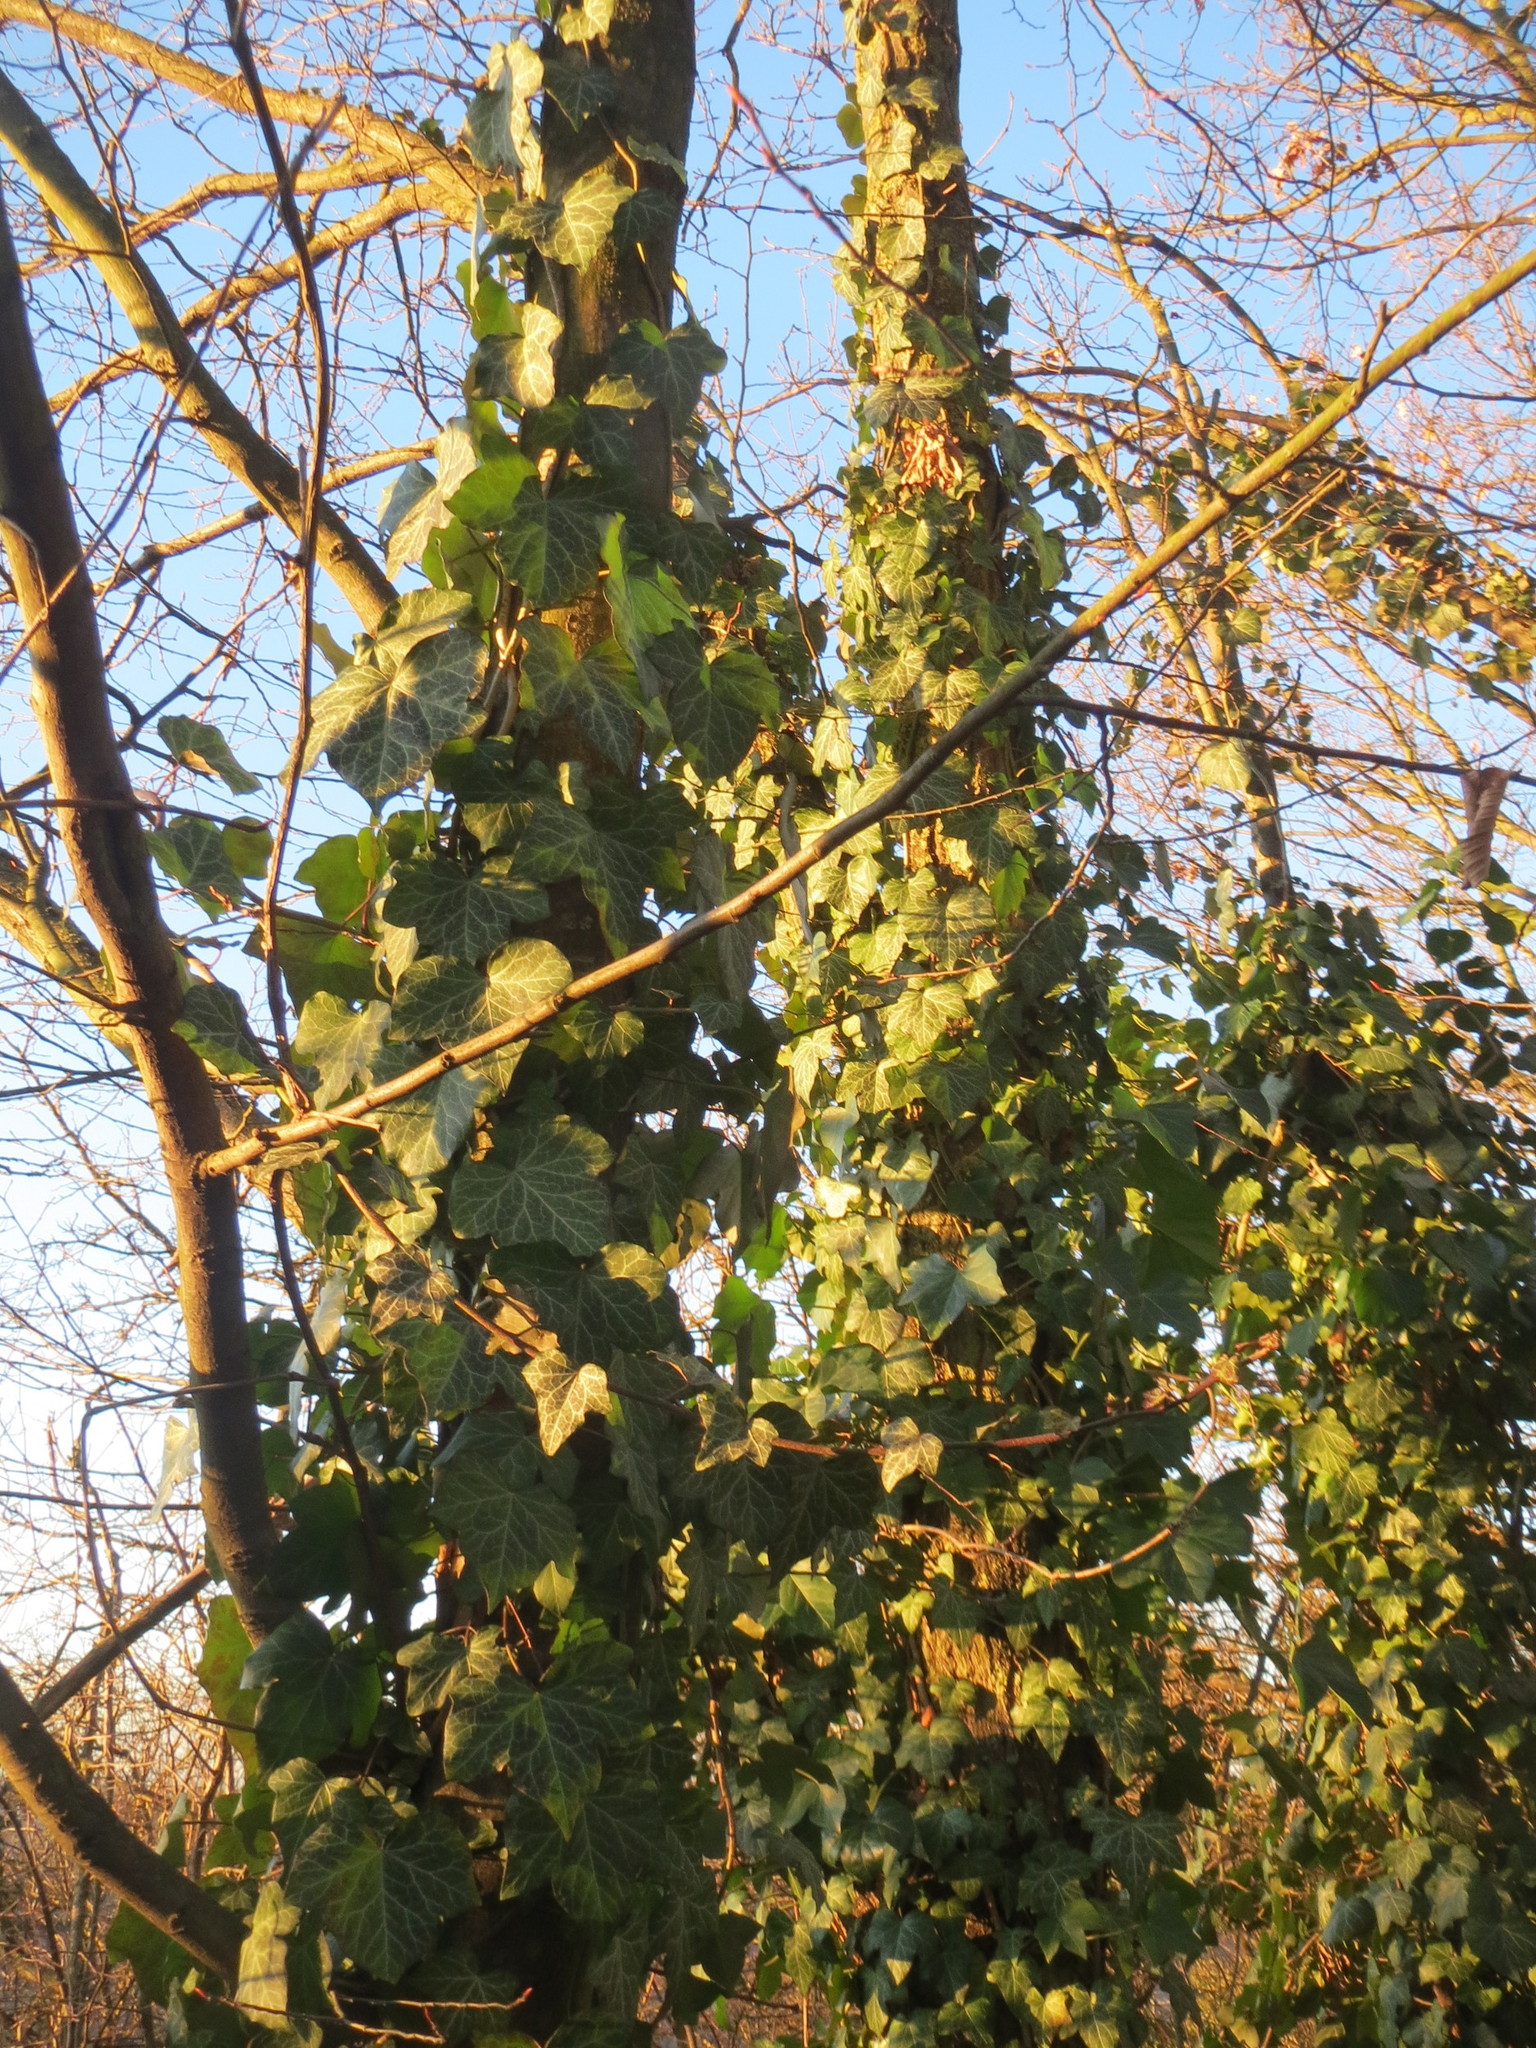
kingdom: Plantae
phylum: Tracheophyta
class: Magnoliopsida
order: Apiales
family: Araliaceae
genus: Hedera
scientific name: Hedera helix
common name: Ivy
